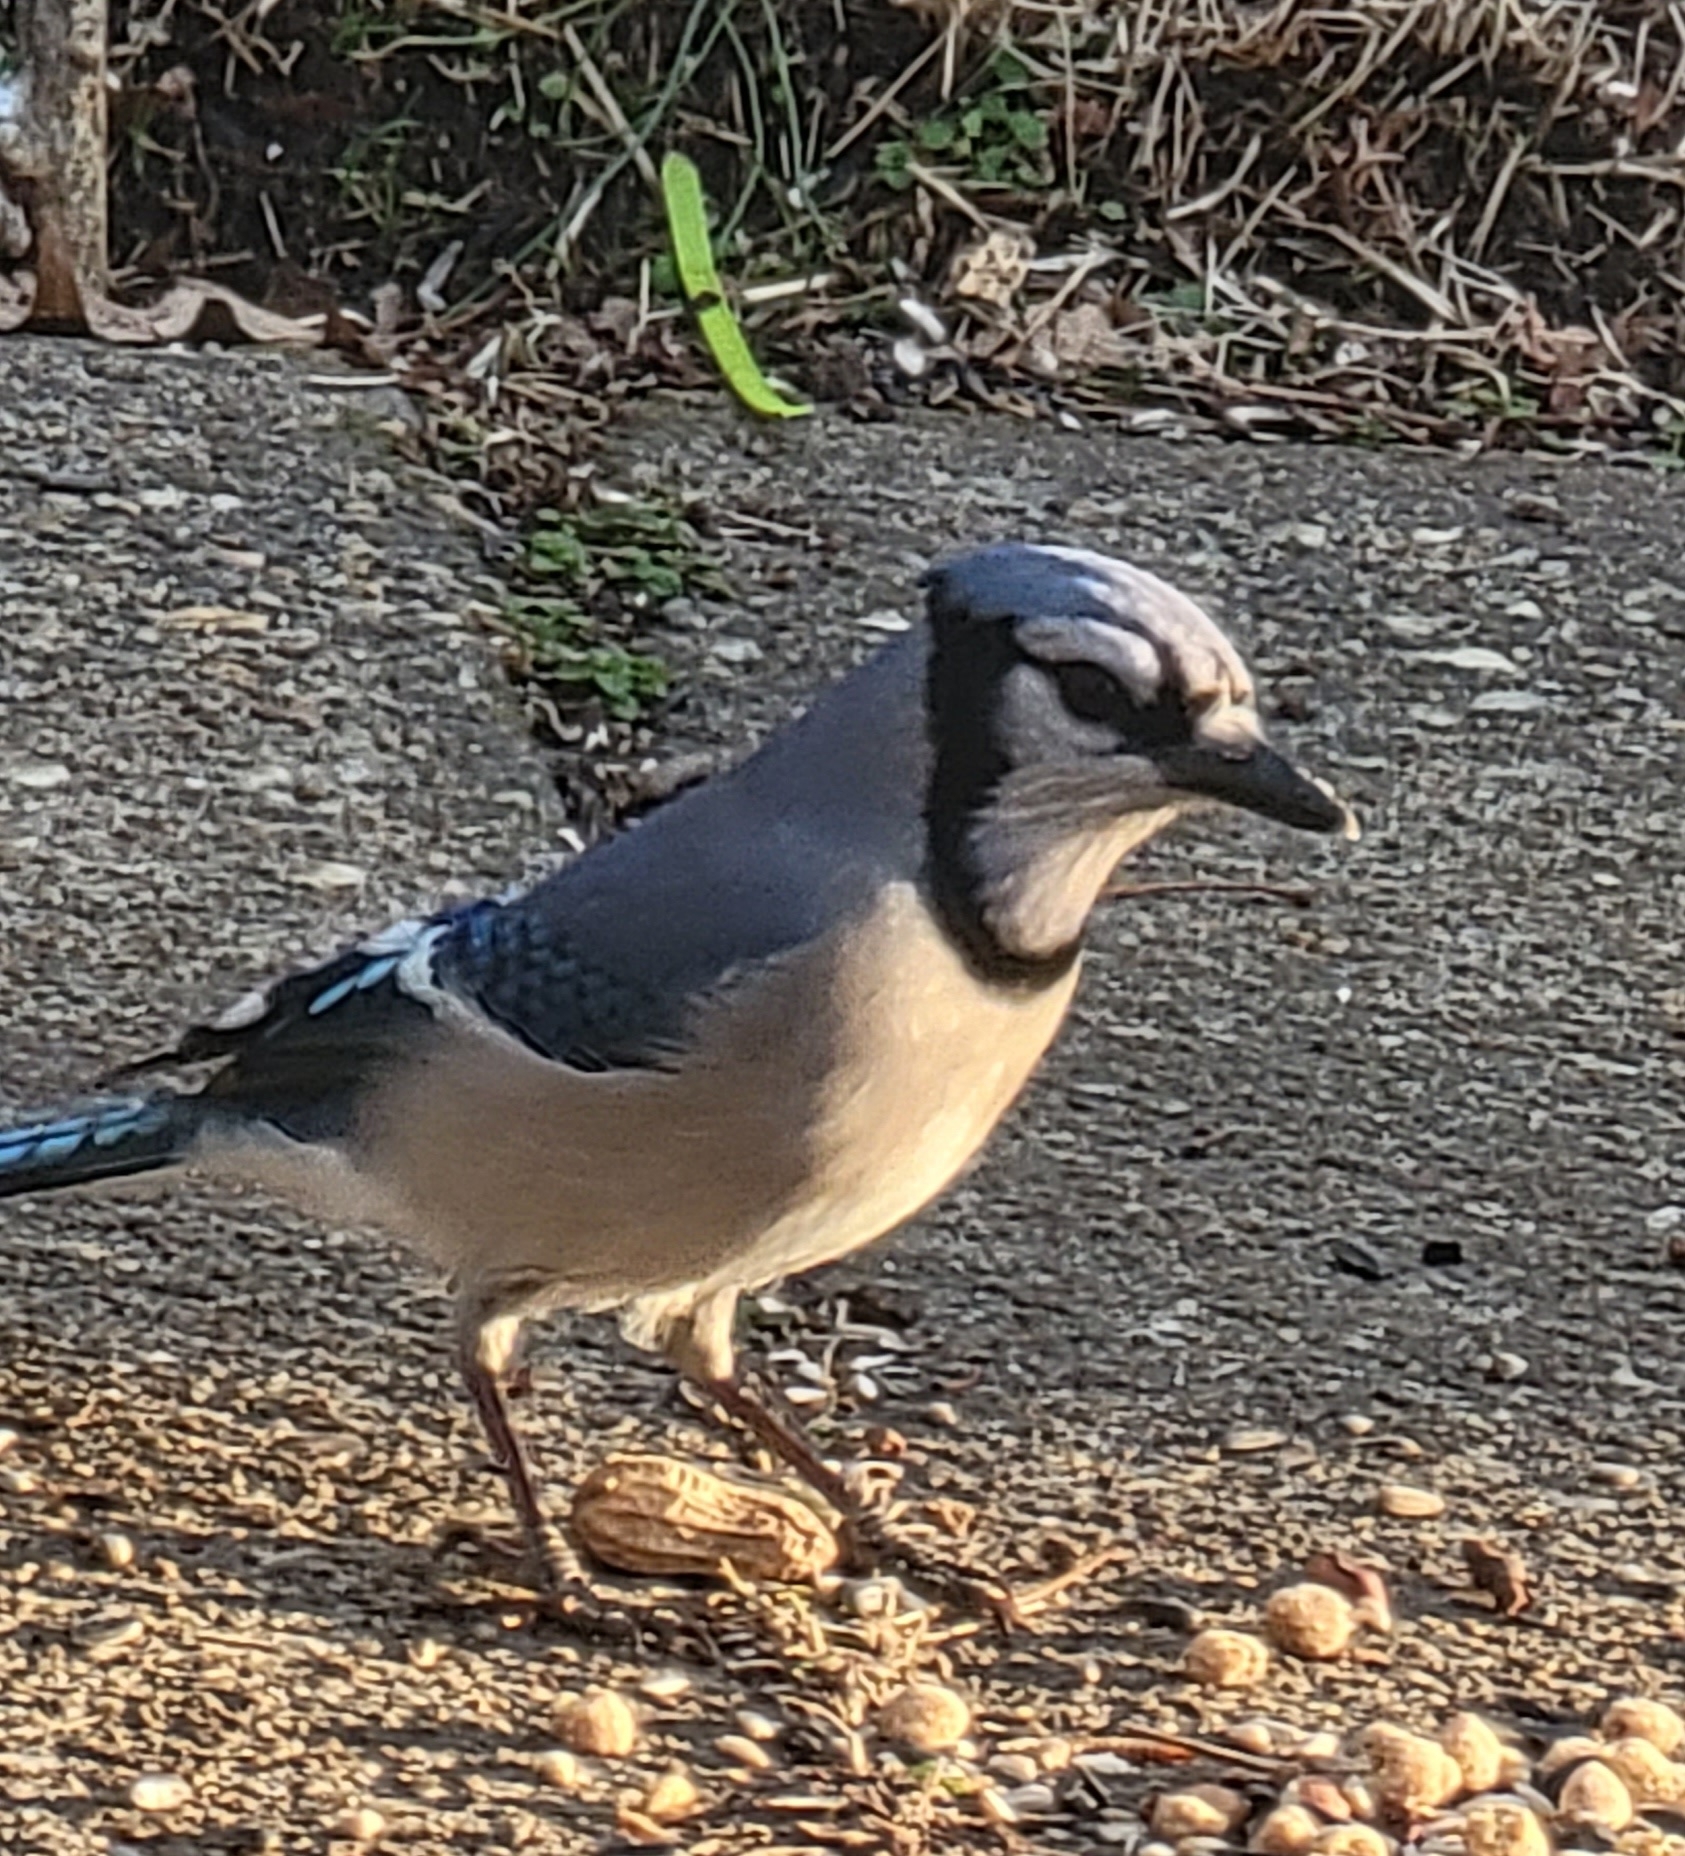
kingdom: Animalia
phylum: Chordata
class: Aves
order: Passeriformes
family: Corvidae
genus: Cyanocitta
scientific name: Cyanocitta cristata
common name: Blue jay
